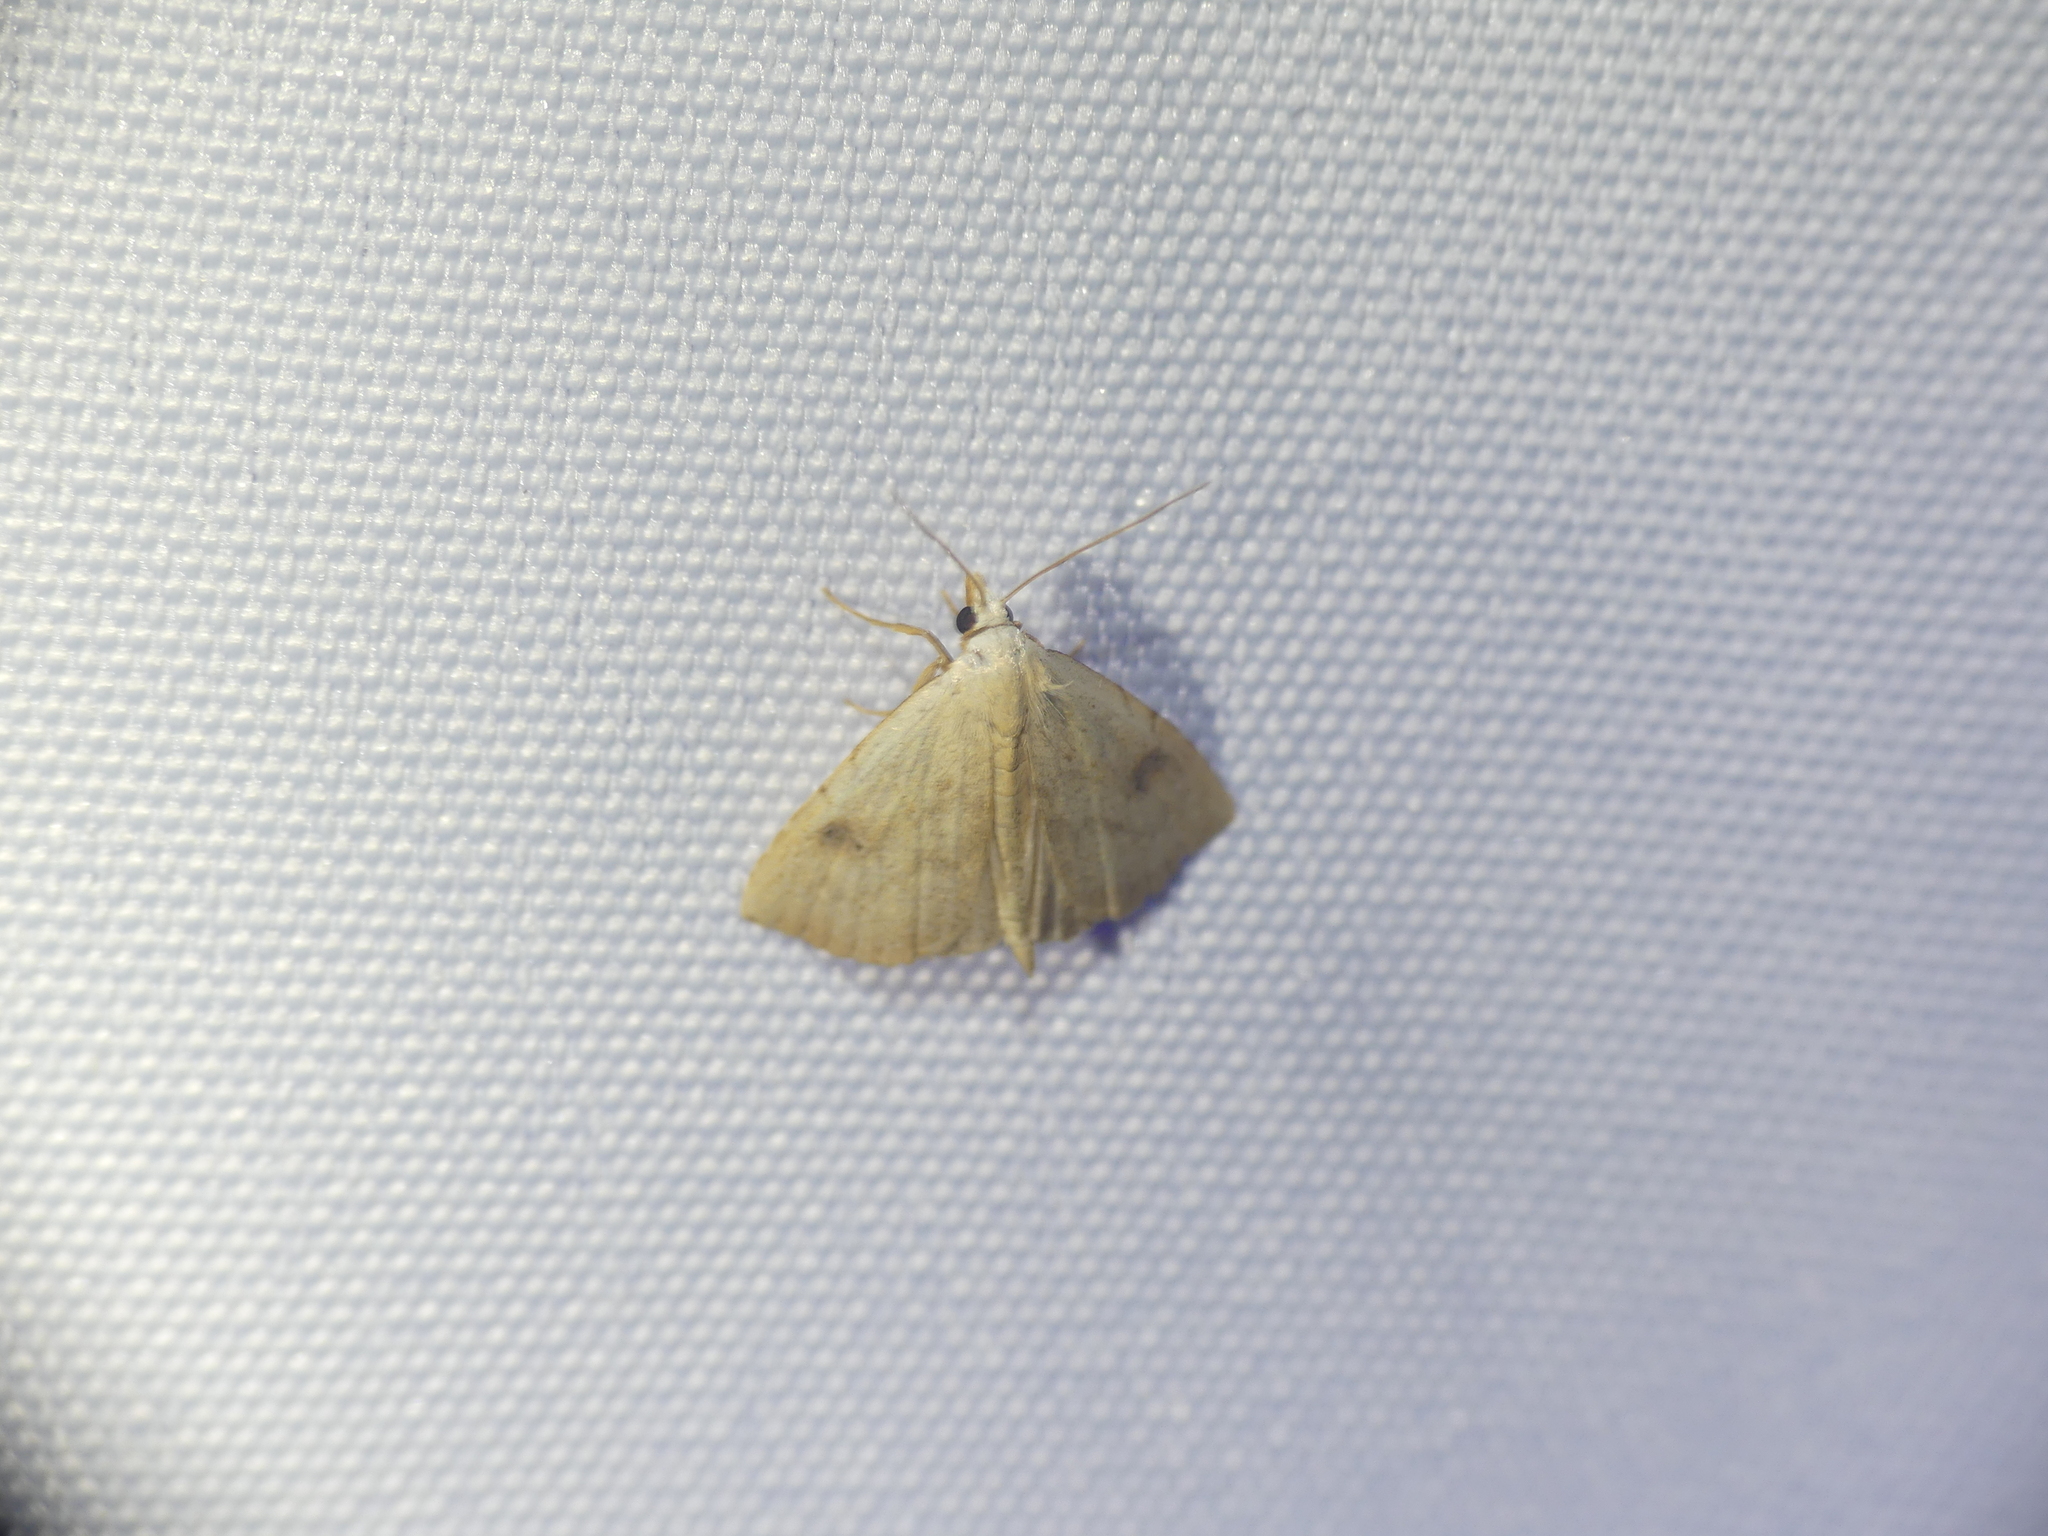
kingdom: Animalia
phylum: Arthropoda
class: Insecta
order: Lepidoptera
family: Erebidae
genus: Rivula
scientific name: Rivula sericealis
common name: Straw dot
